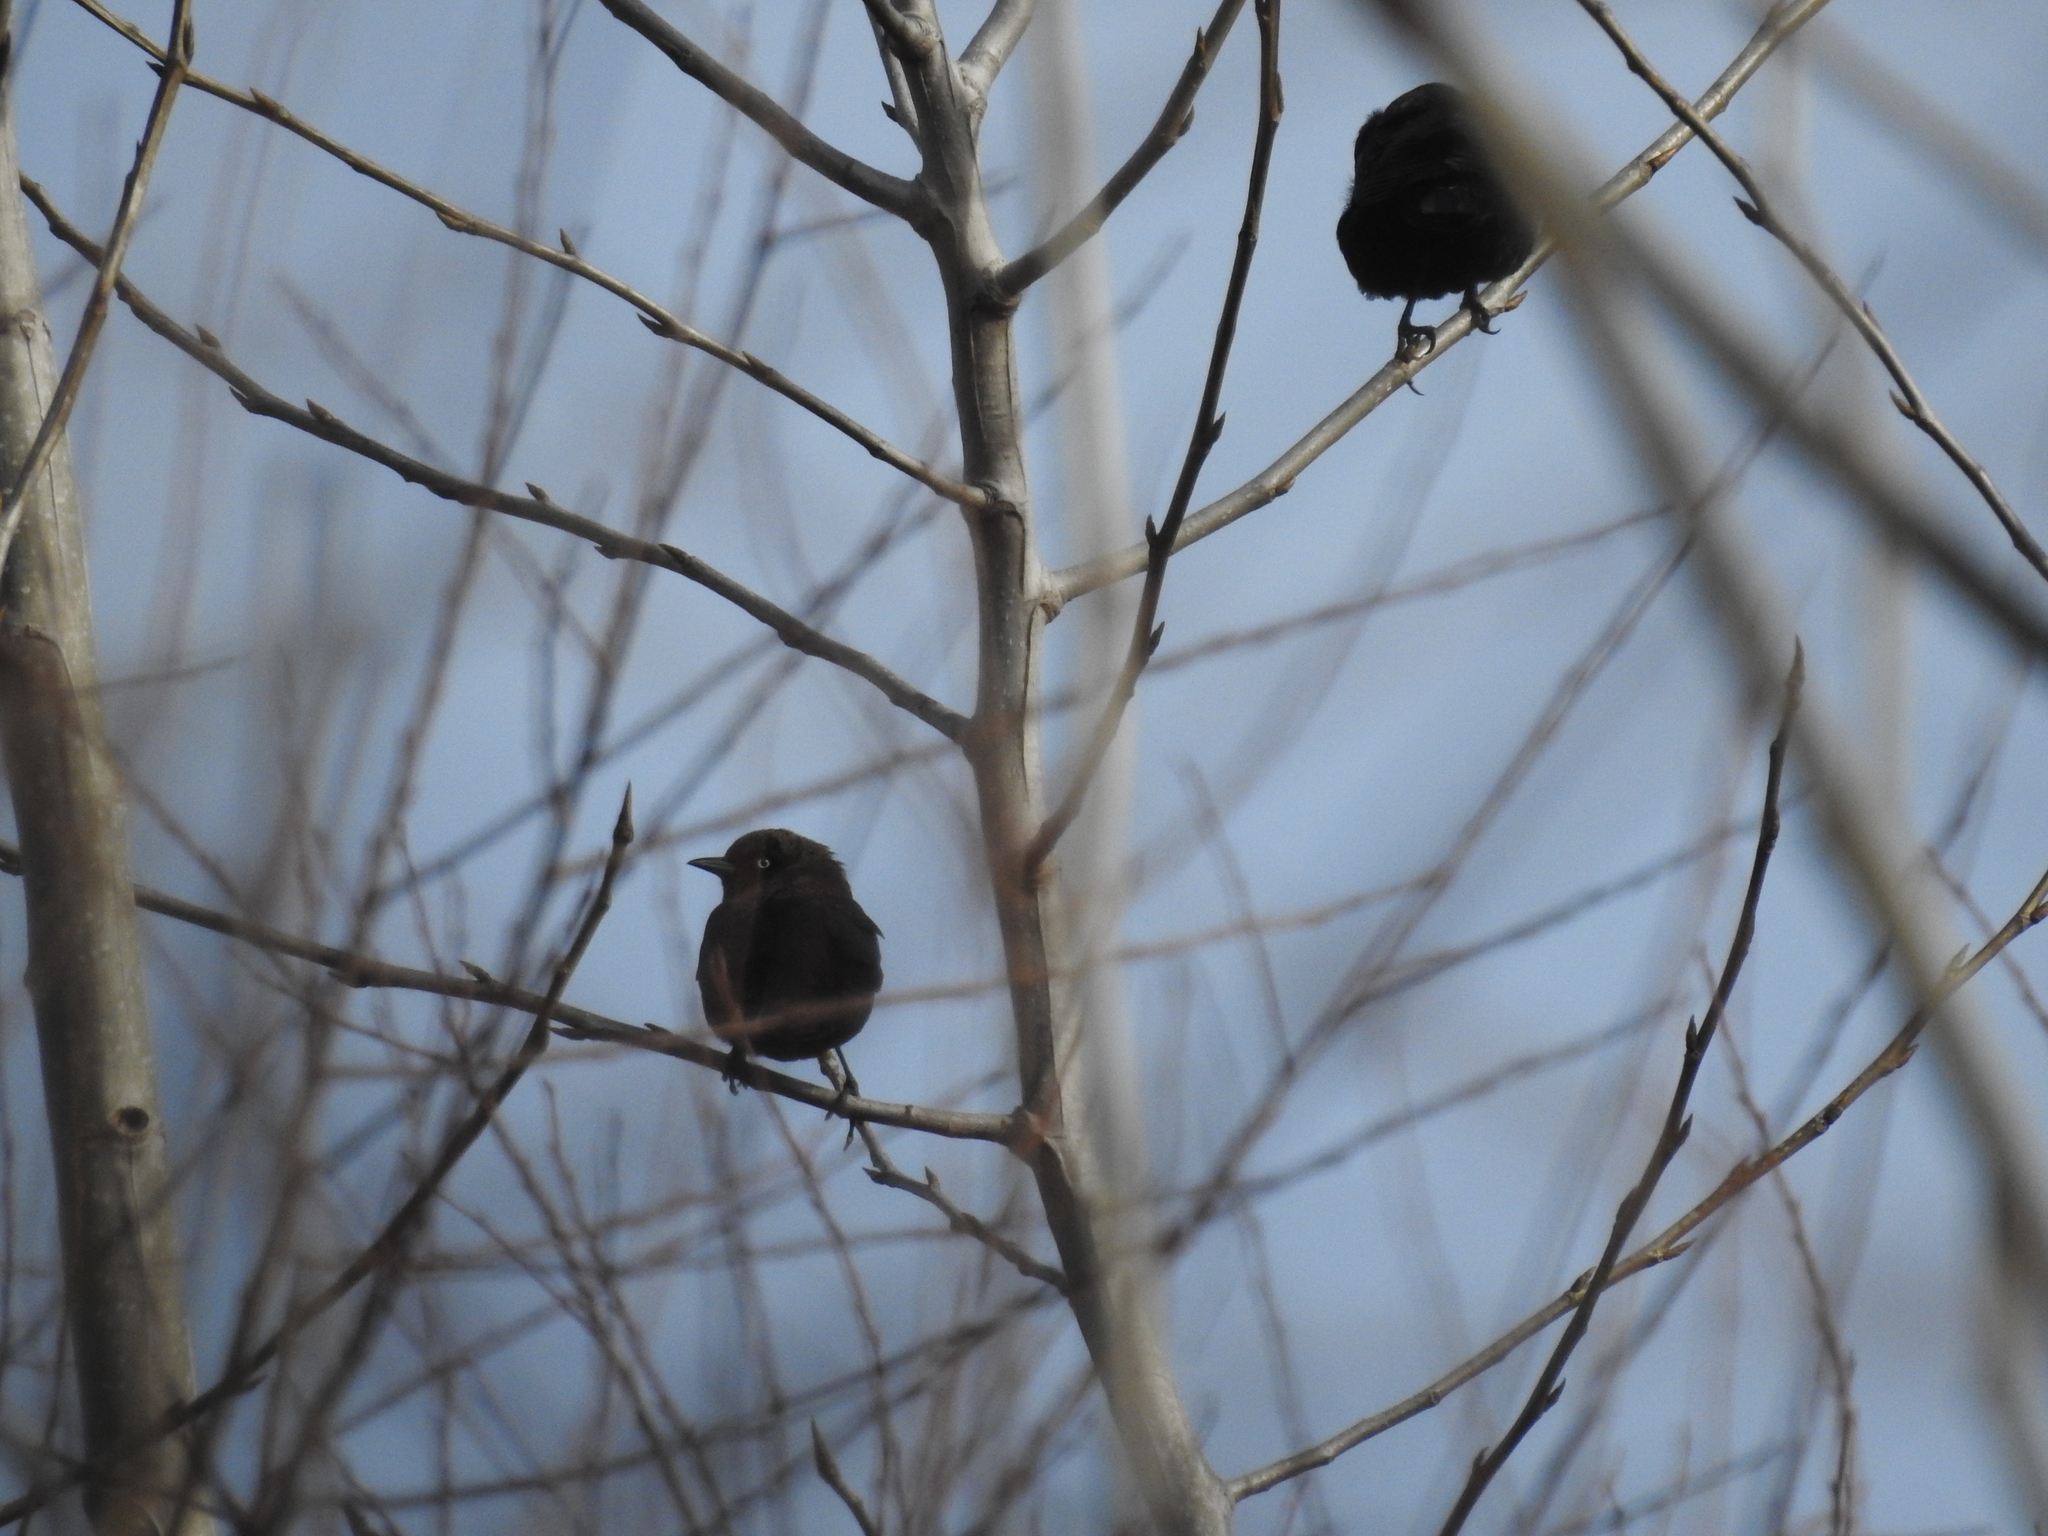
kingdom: Animalia
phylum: Chordata
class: Aves
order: Passeriformes
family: Icteridae
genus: Euphagus
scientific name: Euphagus carolinus
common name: Rusty blackbird
